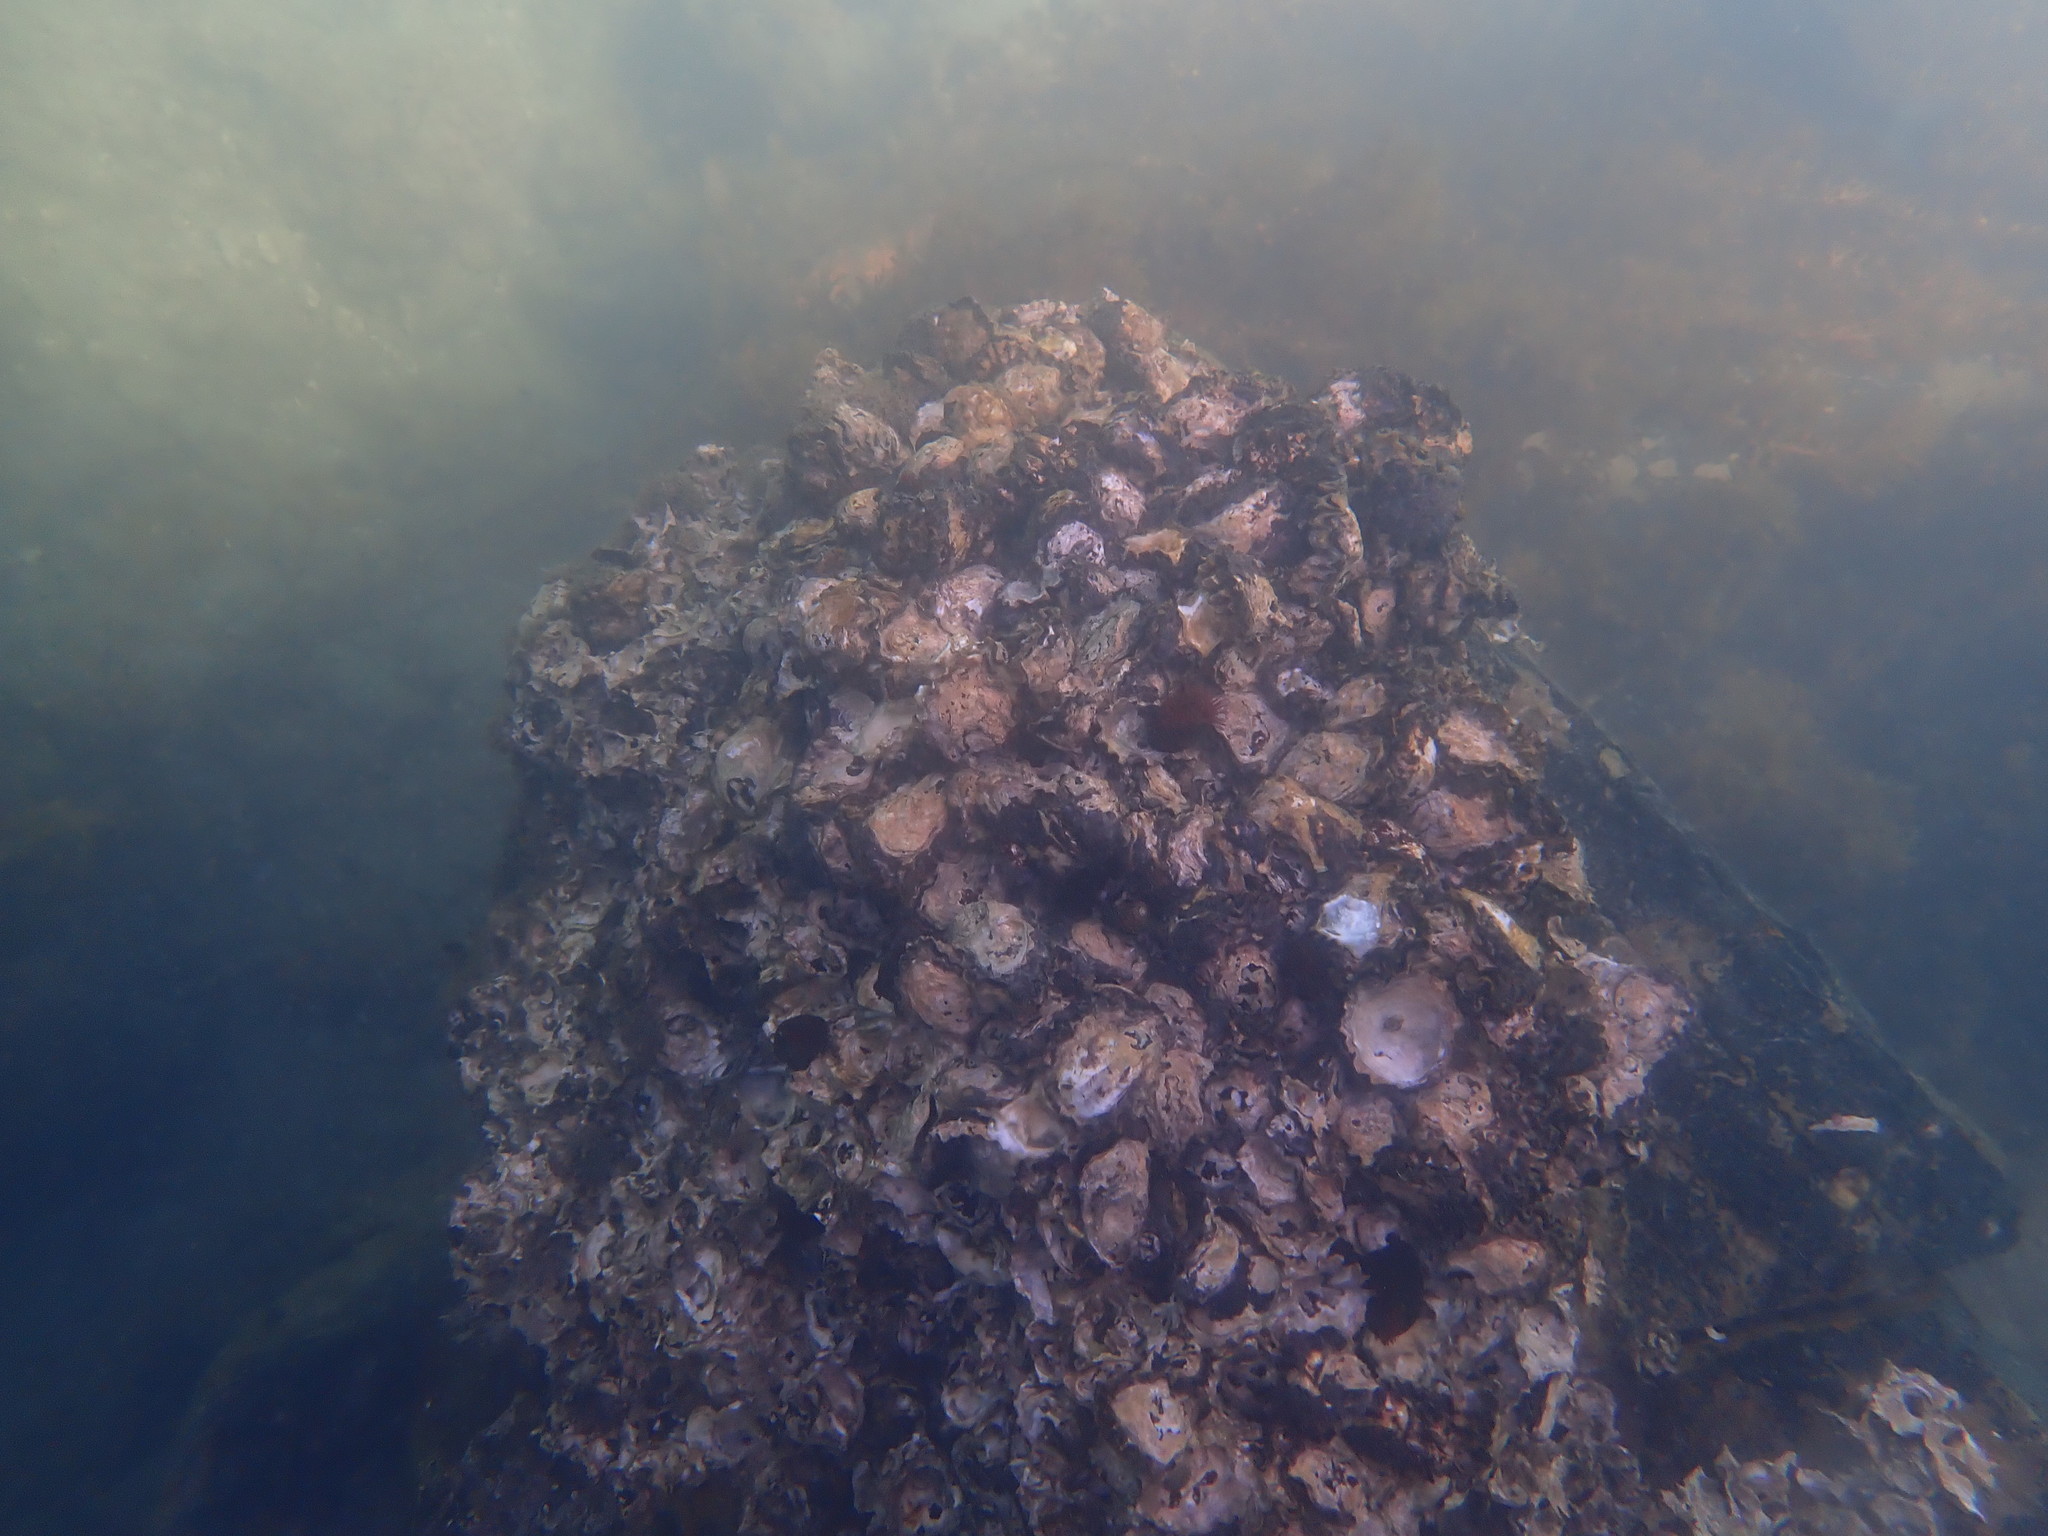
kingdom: Animalia
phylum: Mollusca
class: Bivalvia
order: Ostreida
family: Ostreidae
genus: Saccostrea
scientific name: Saccostrea glomerata
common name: Sydney cupped oyster
